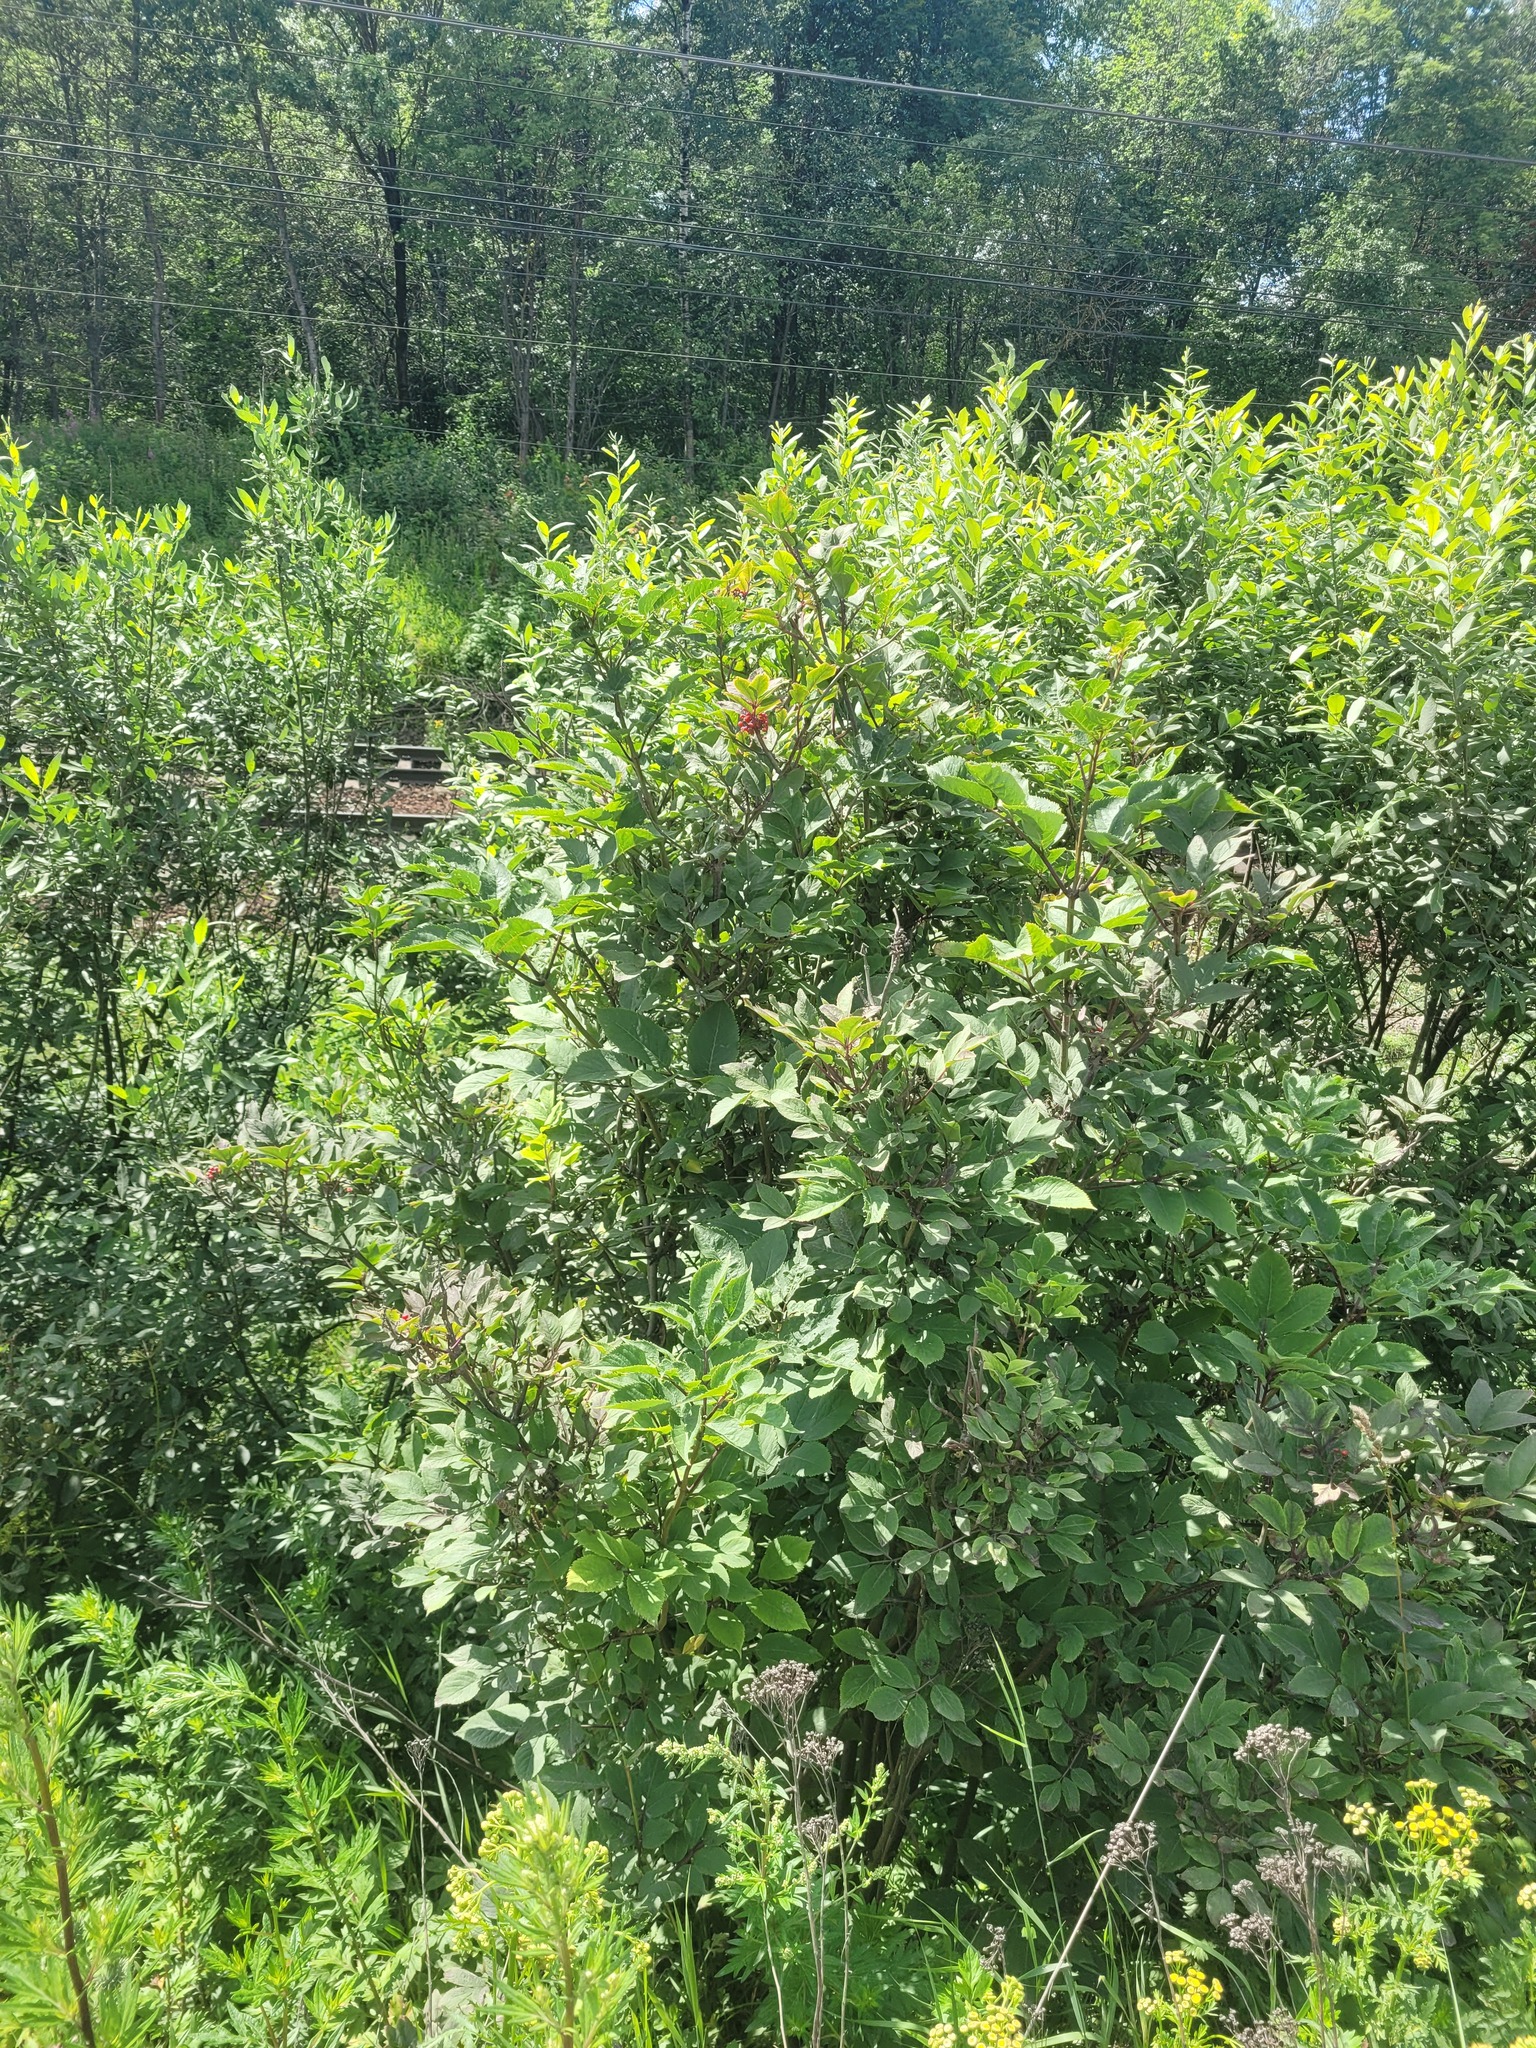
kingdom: Plantae
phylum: Tracheophyta
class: Magnoliopsida
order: Dipsacales
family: Viburnaceae
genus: Sambucus
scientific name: Sambucus racemosa
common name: Red-berried elder
